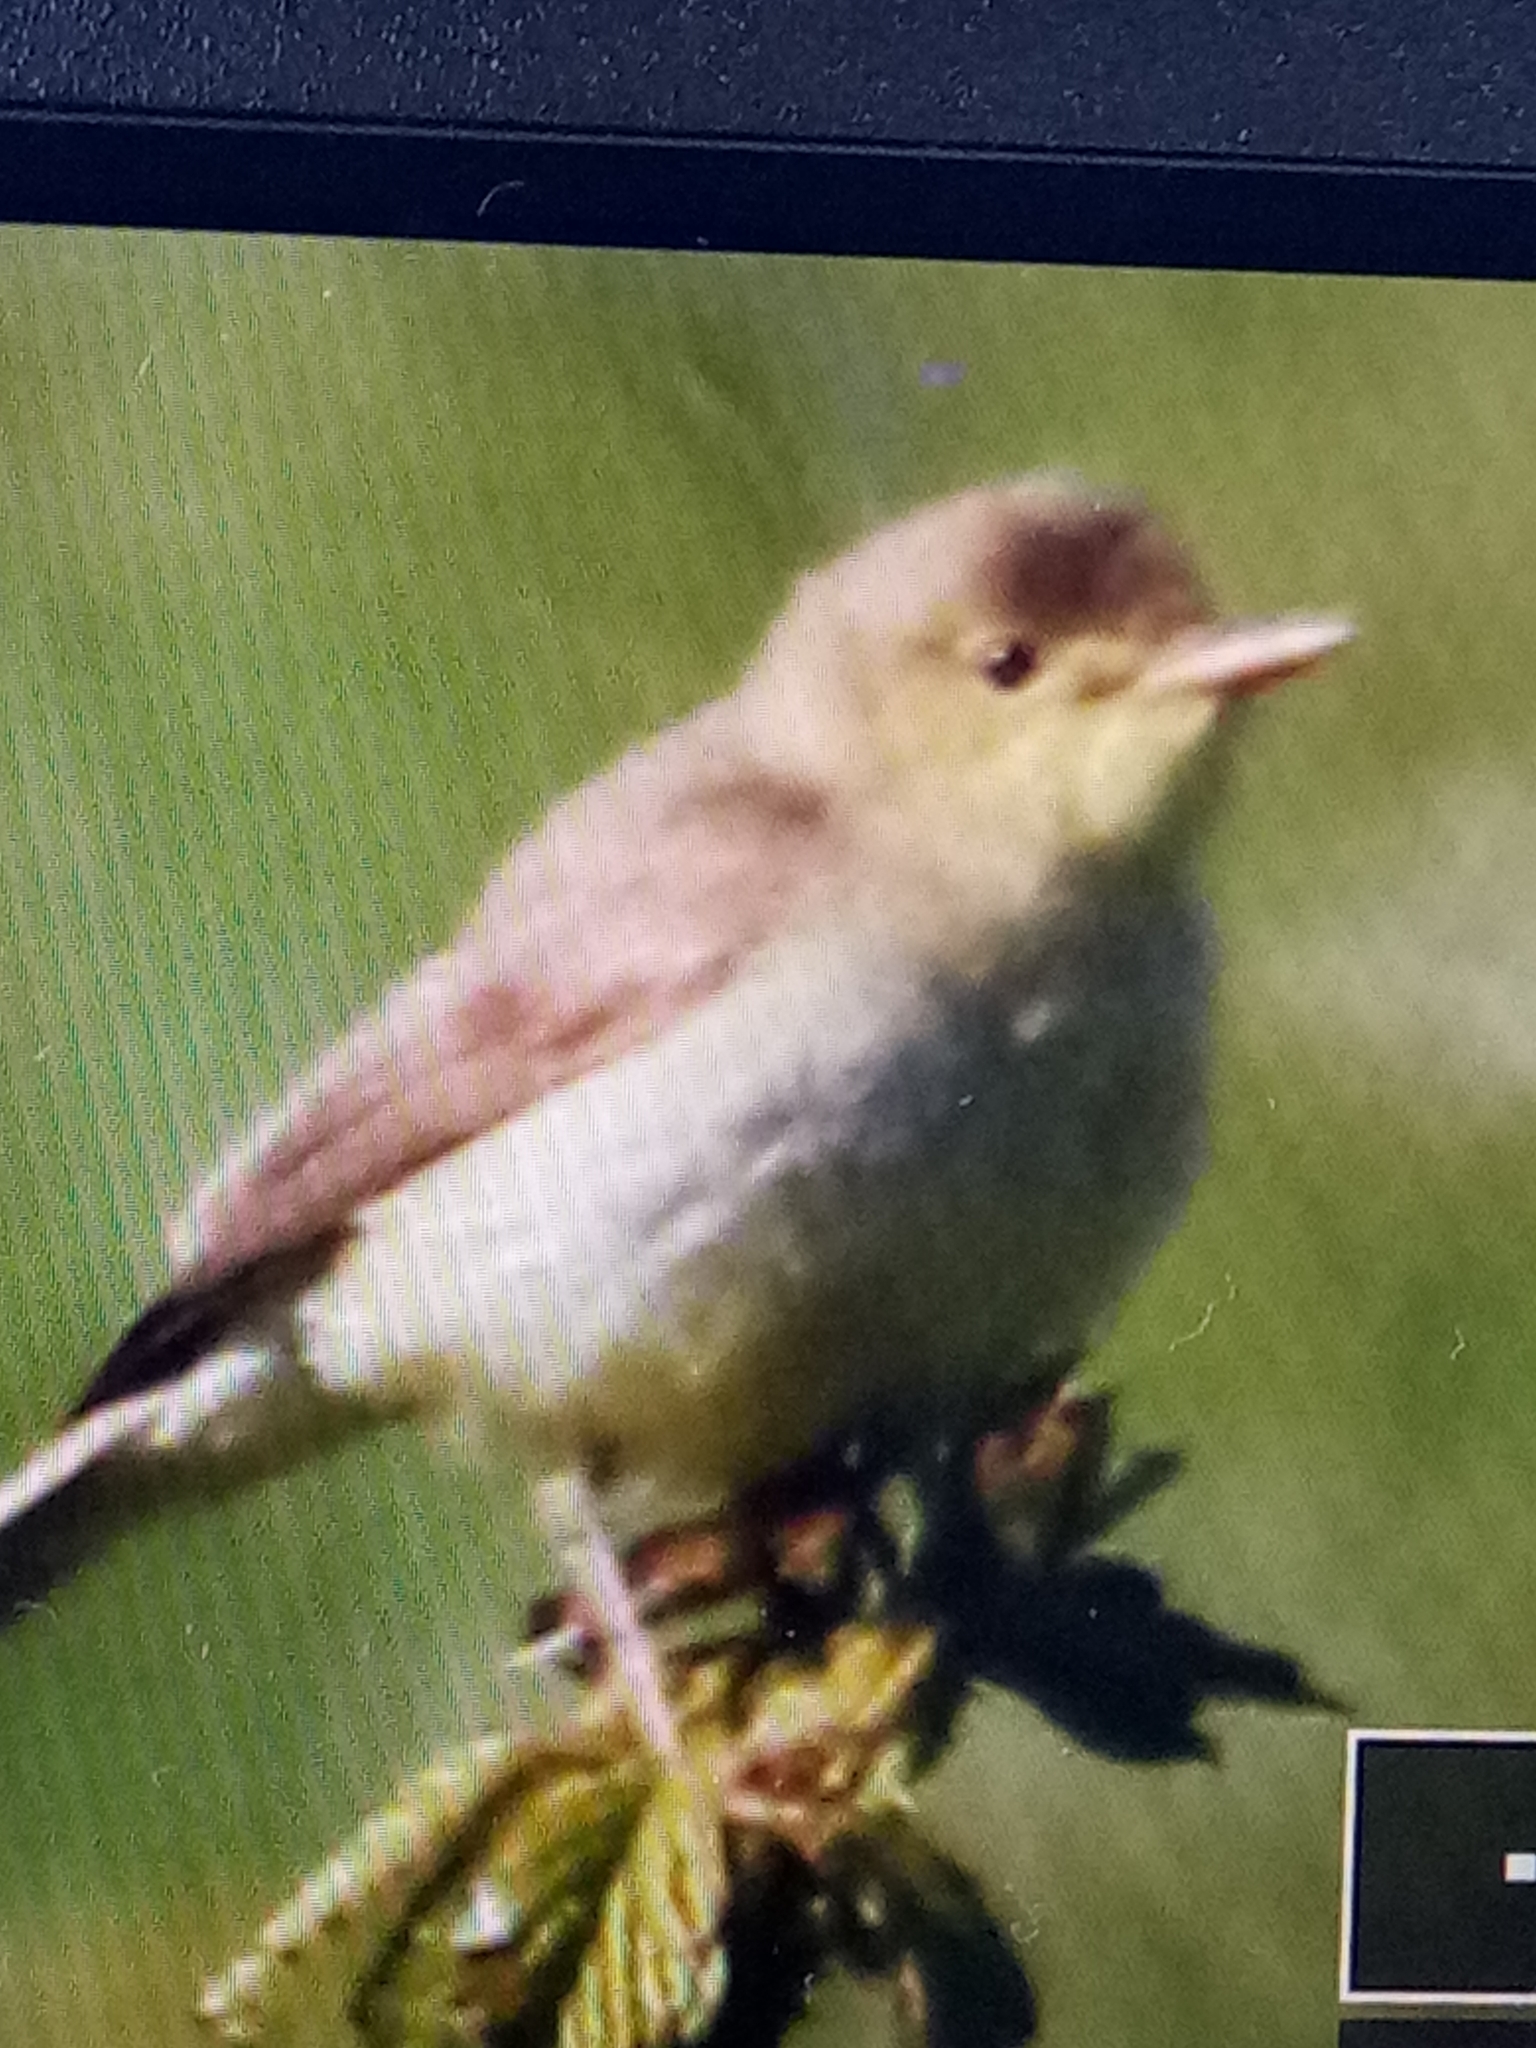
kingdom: Animalia
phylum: Chordata
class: Aves
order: Passeriformes
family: Acrocephalidae
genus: Hippolais
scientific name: Hippolais polyglotta
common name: Melodious warbler
